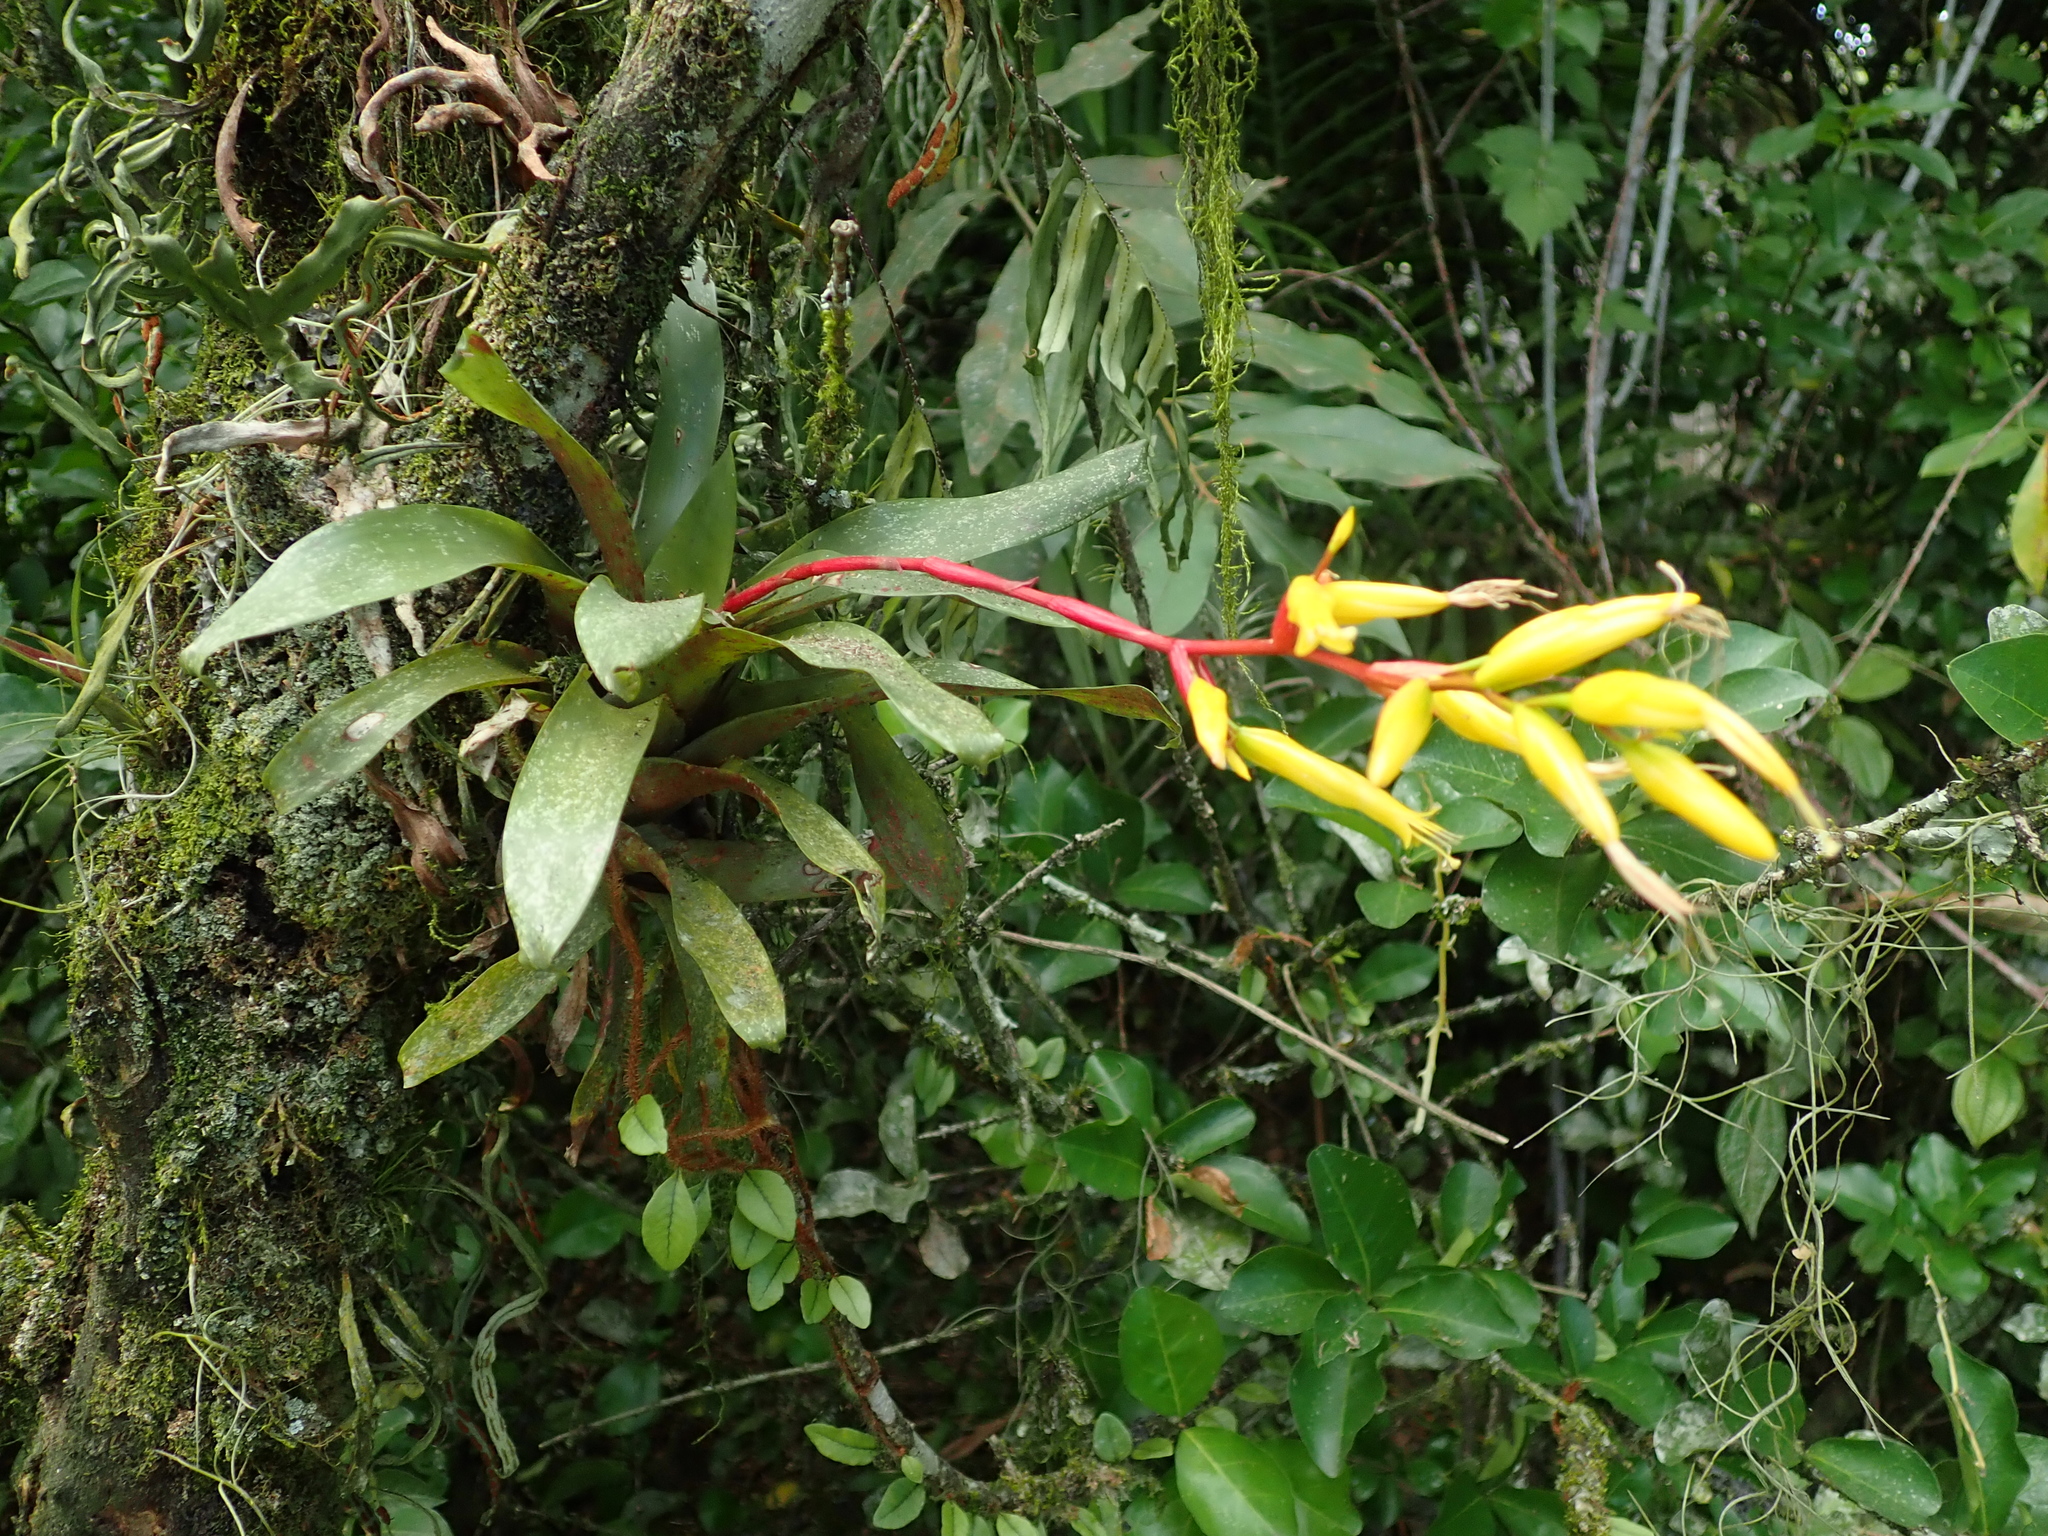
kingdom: Plantae
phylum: Tracheophyta
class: Liliopsida
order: Poales
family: Bromeliaceae
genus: Vriesea
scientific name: Vriesea rodigasiana
